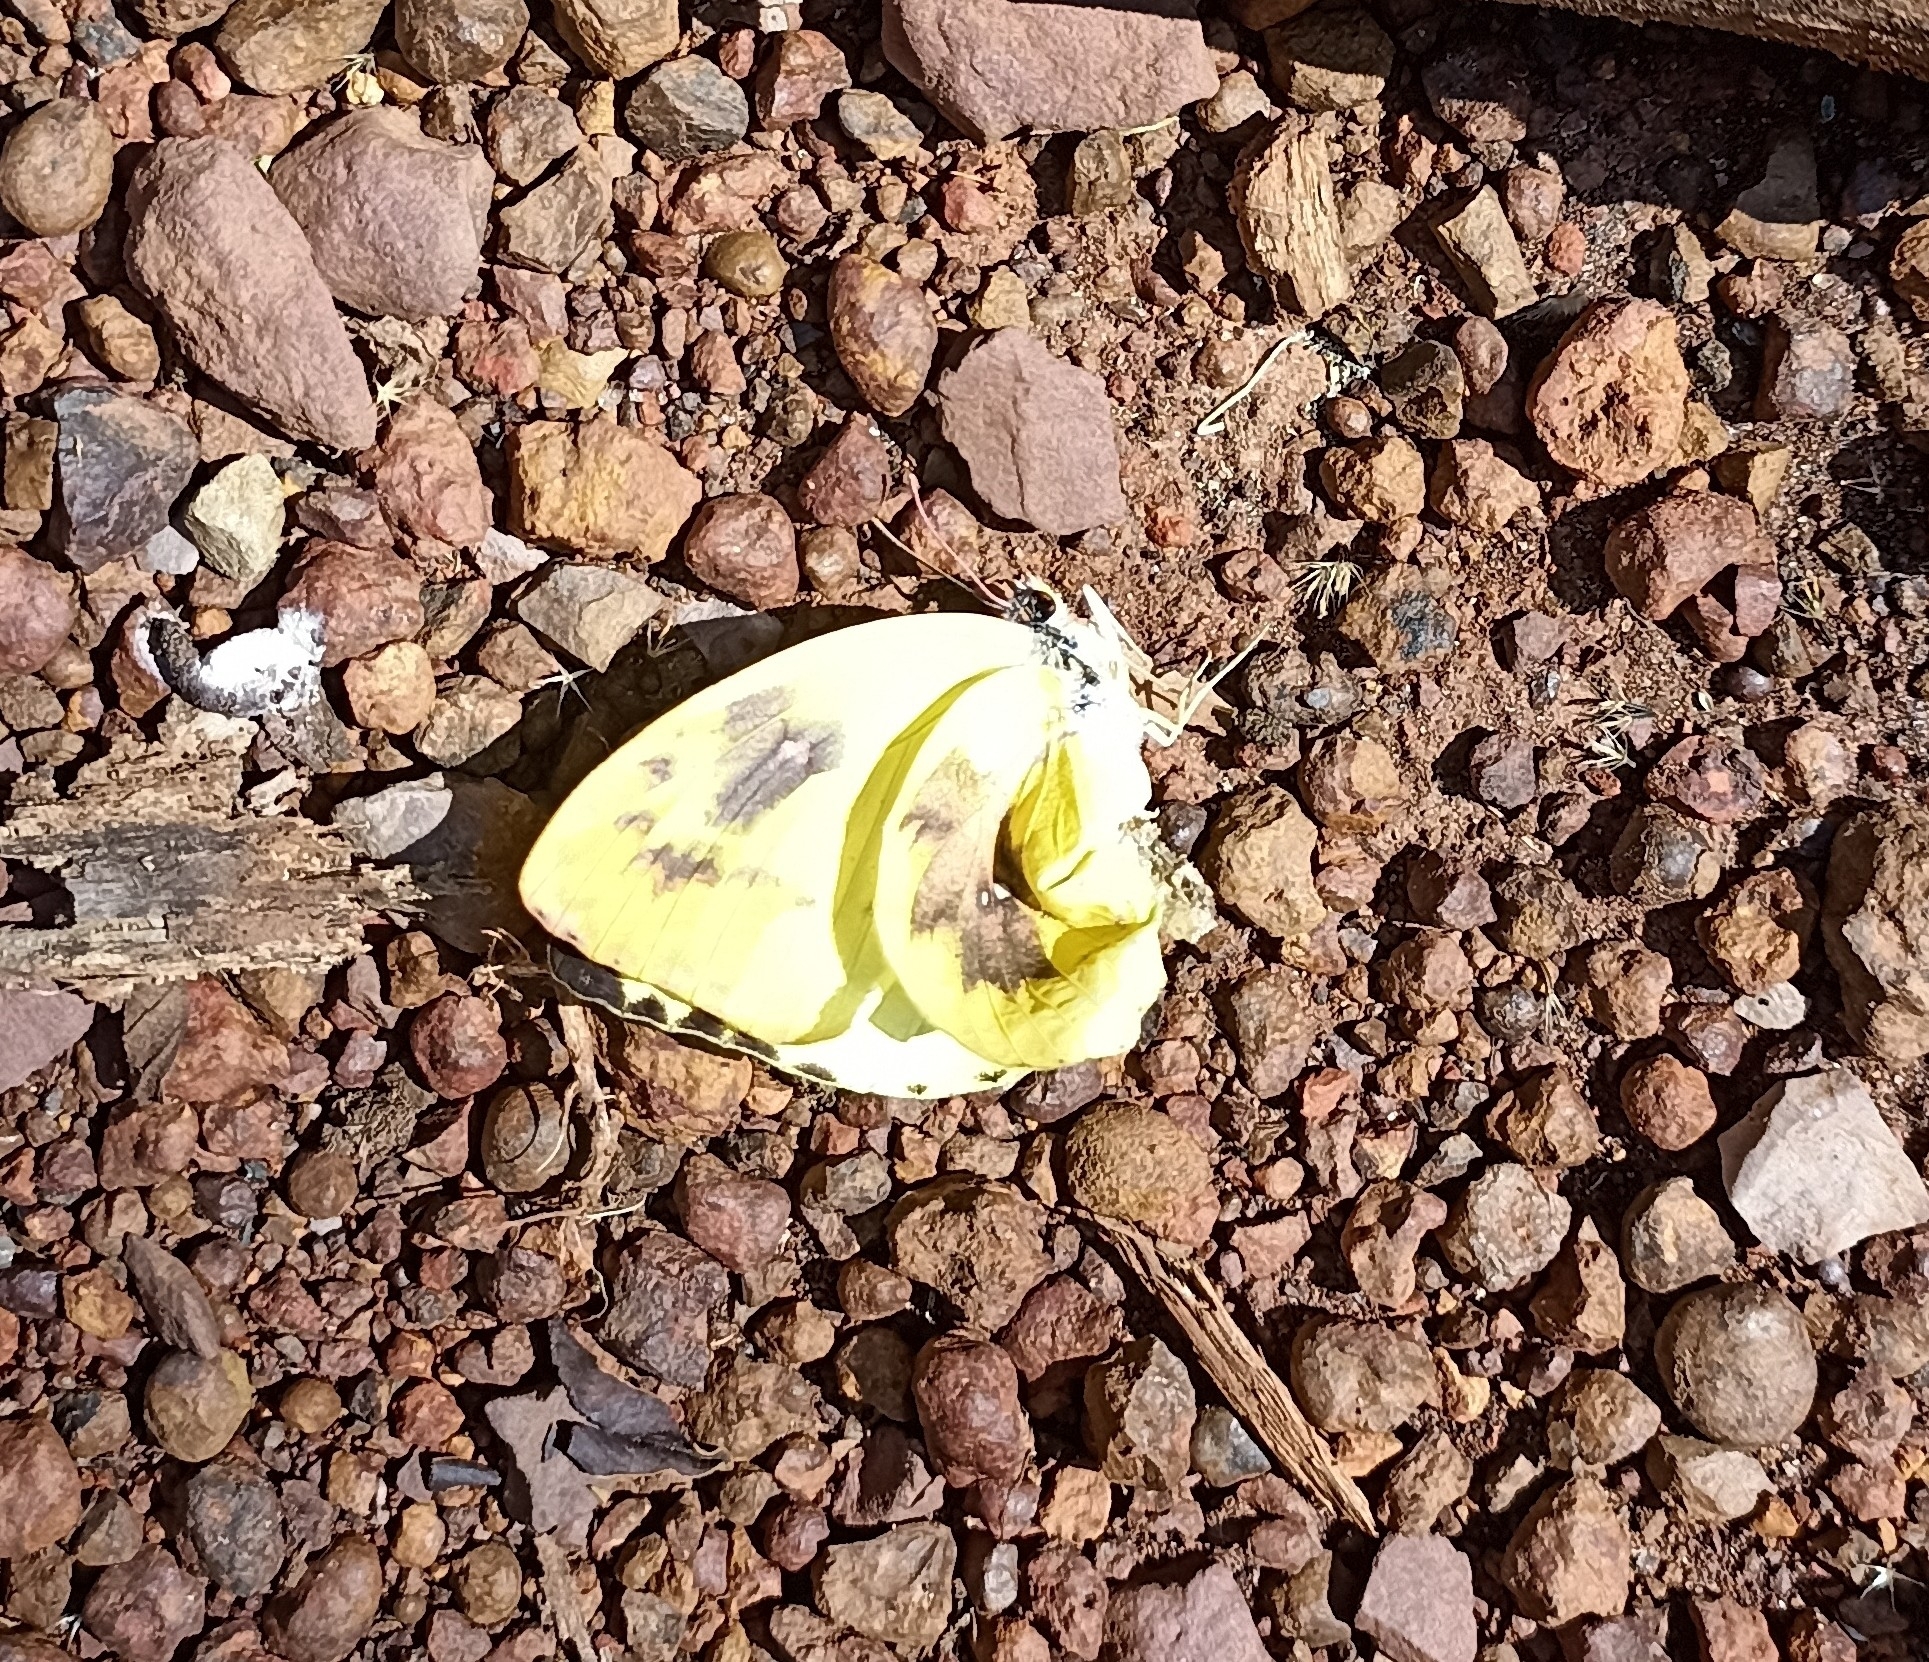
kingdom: Animalia
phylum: Arthropoda
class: Insecta
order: Lepidoptera
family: Pieridae
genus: Catopsilia
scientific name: Catopsilia pomona
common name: Common emigrant
